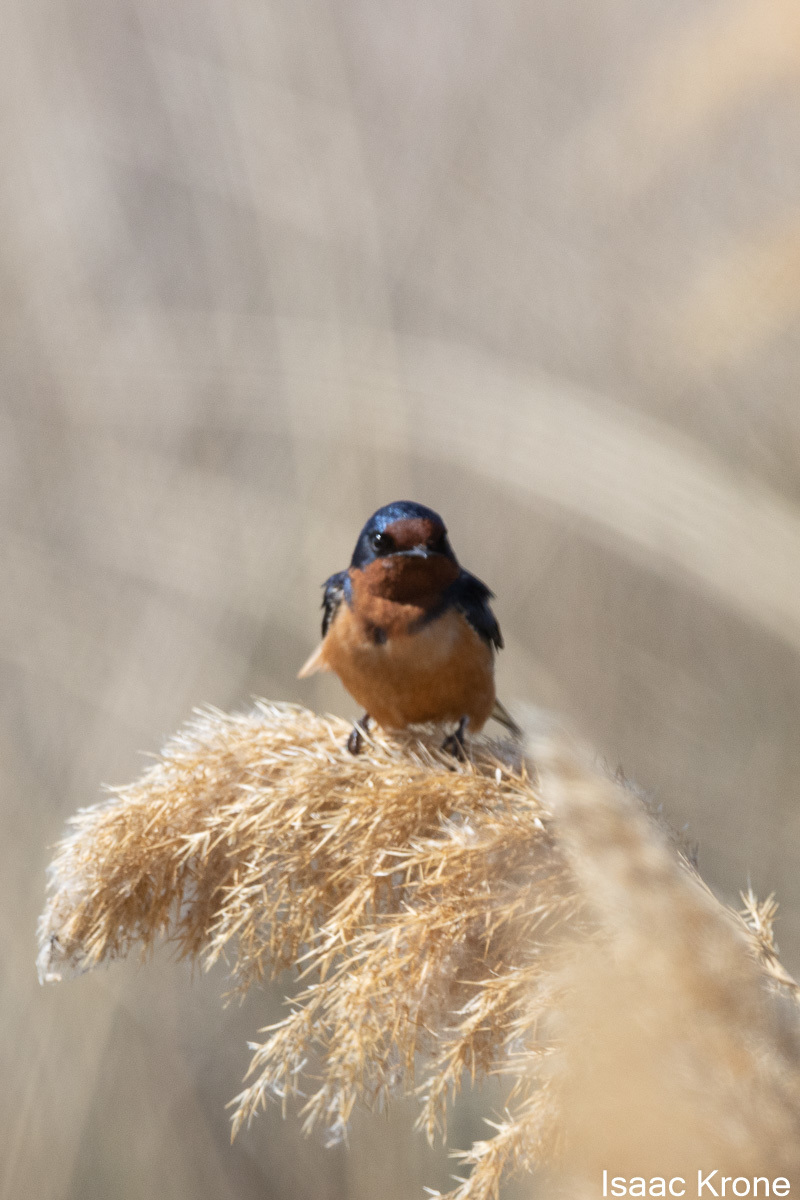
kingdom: Animalia
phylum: Chordata
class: Aves
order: Passeriformes
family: Hirundinidae
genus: Hirundo
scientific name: Hirundo rustica
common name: Barn swallow
